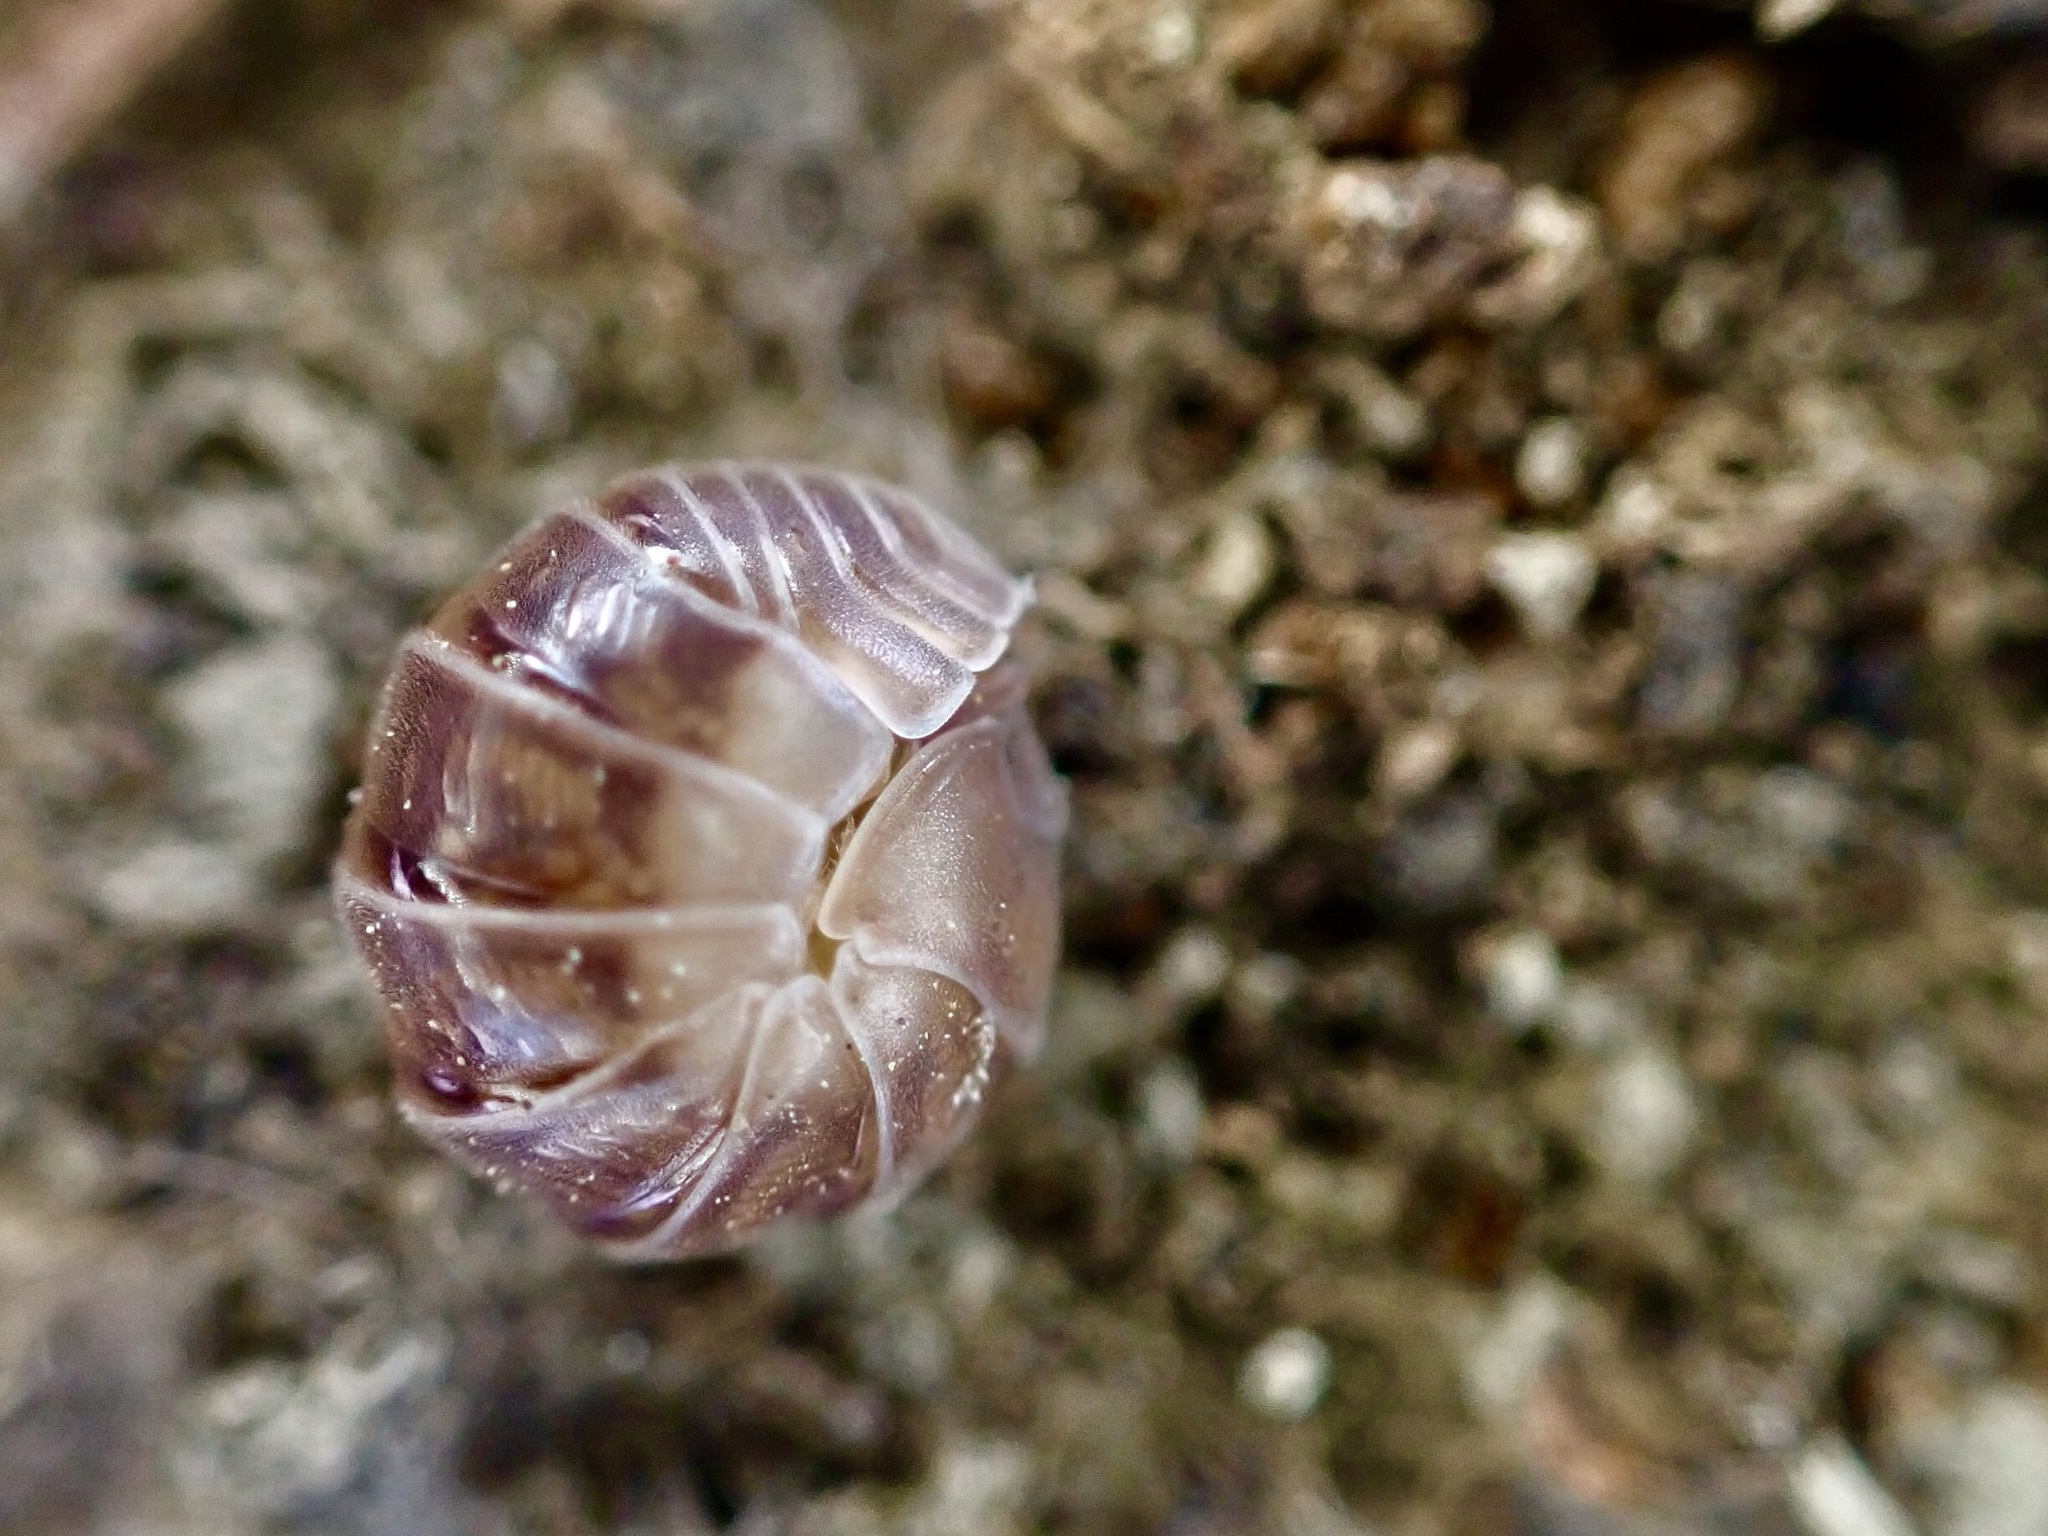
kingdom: Animalia
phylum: Arthropoda
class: Malacostraca
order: Isopoda
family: Armadillidiidae
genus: Eluma
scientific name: Eluma caelata
